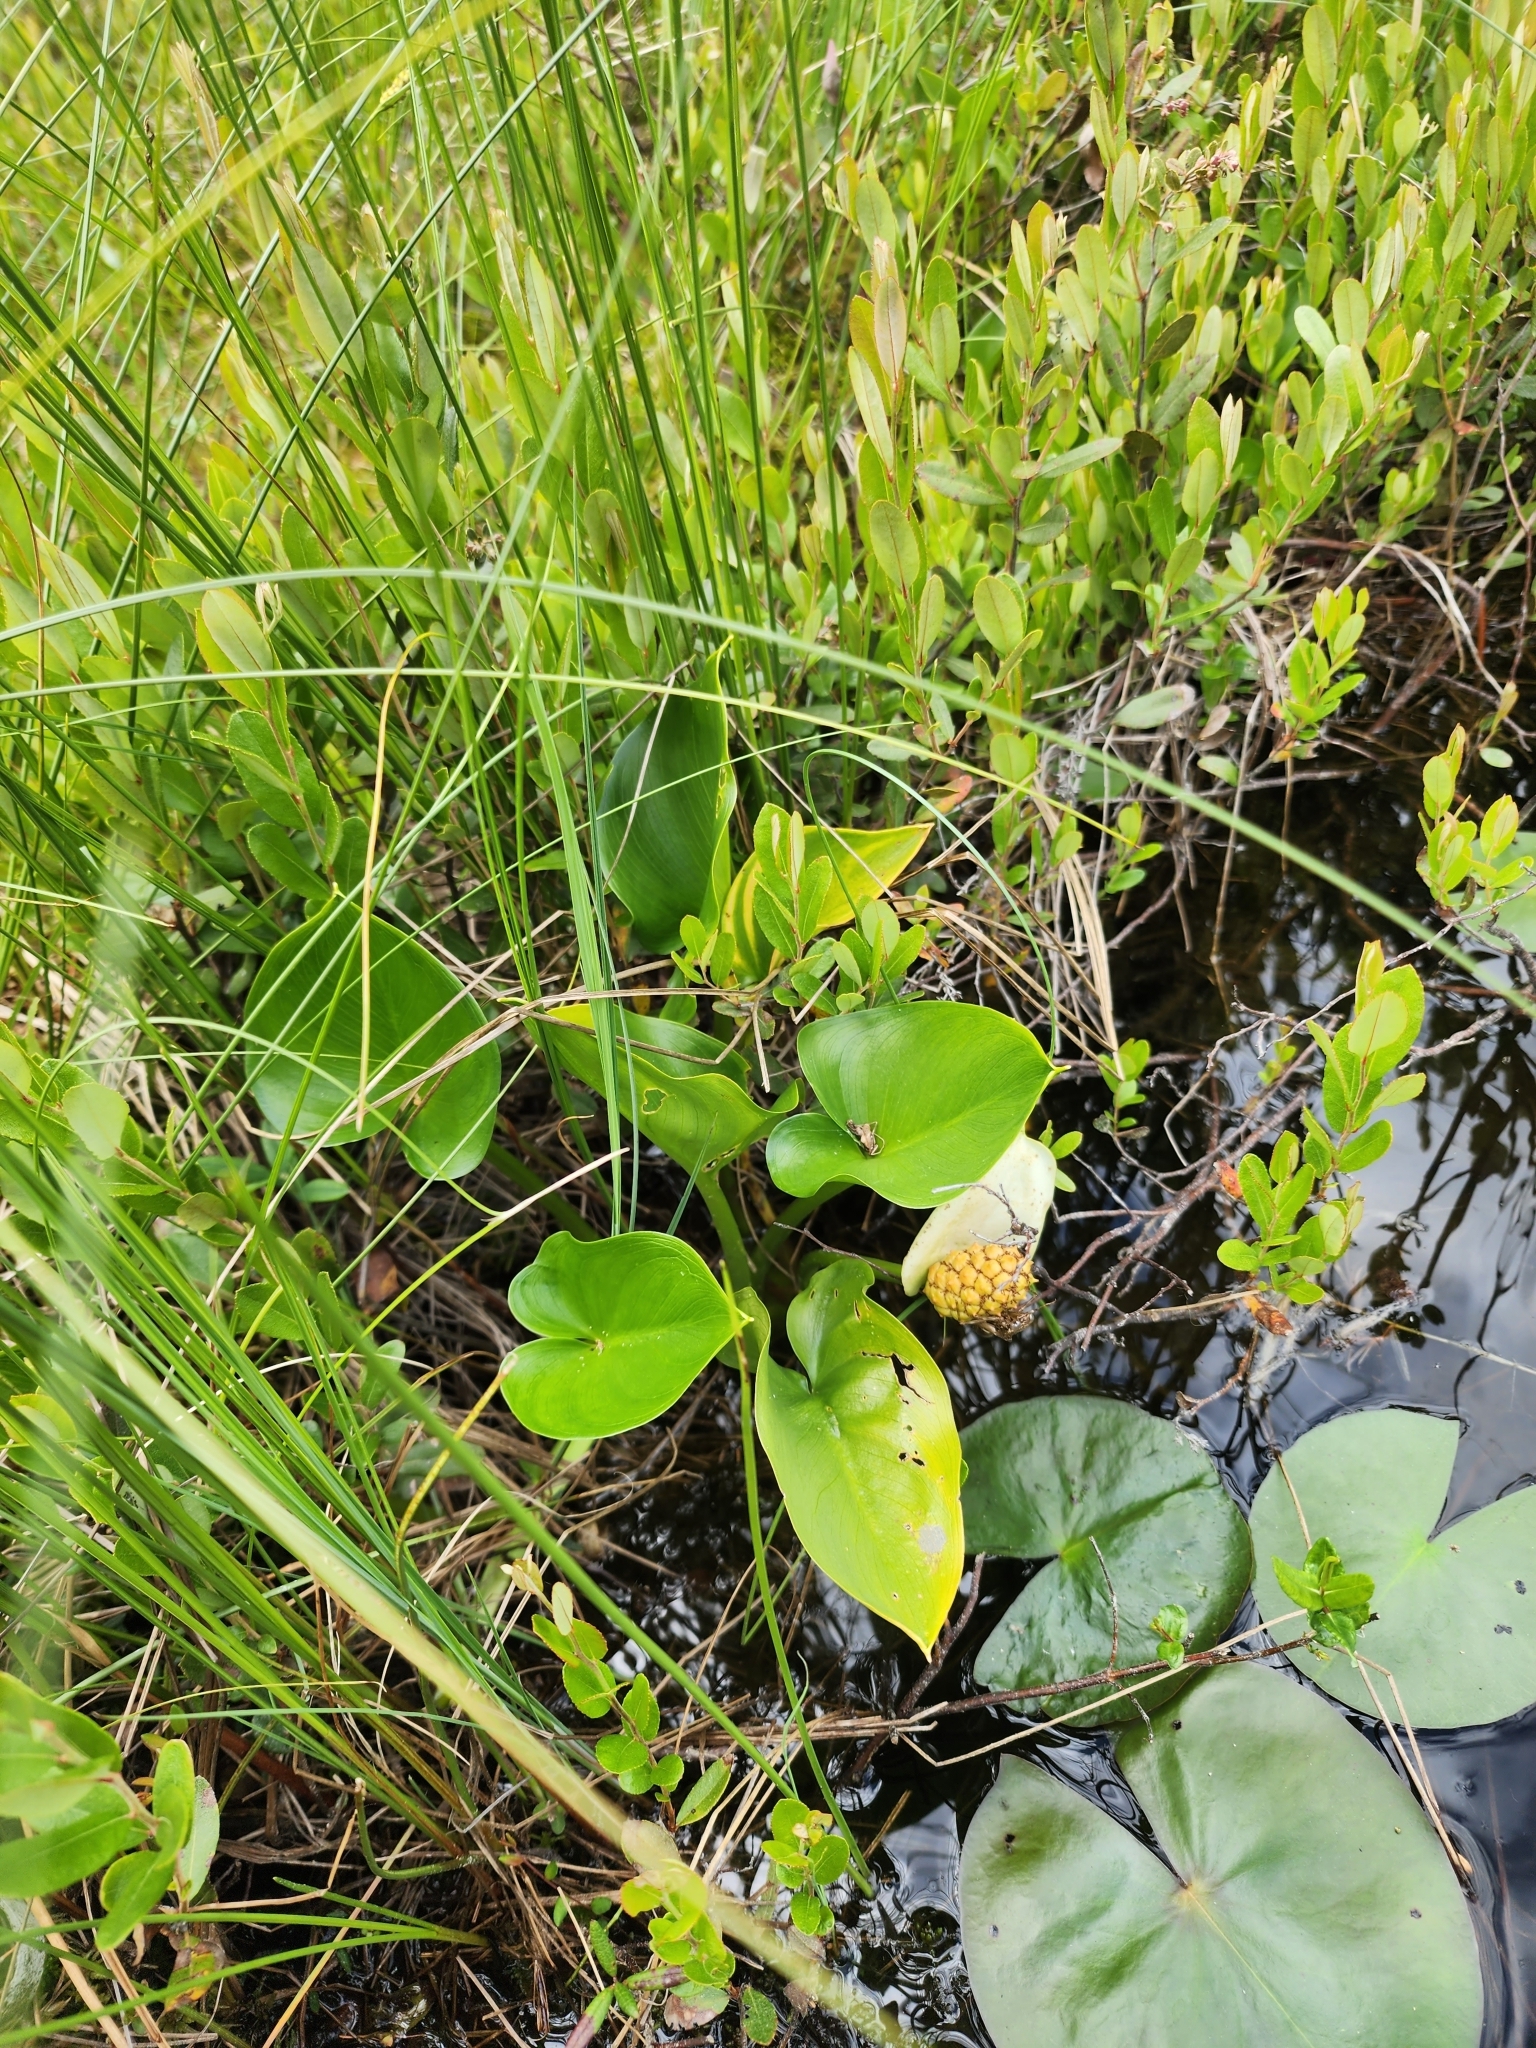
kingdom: Plantae
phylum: Tracheophyta
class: Liliopsida
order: Alismatales
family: Araceae
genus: Calla
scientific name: Calla palustris
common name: Bog arum
